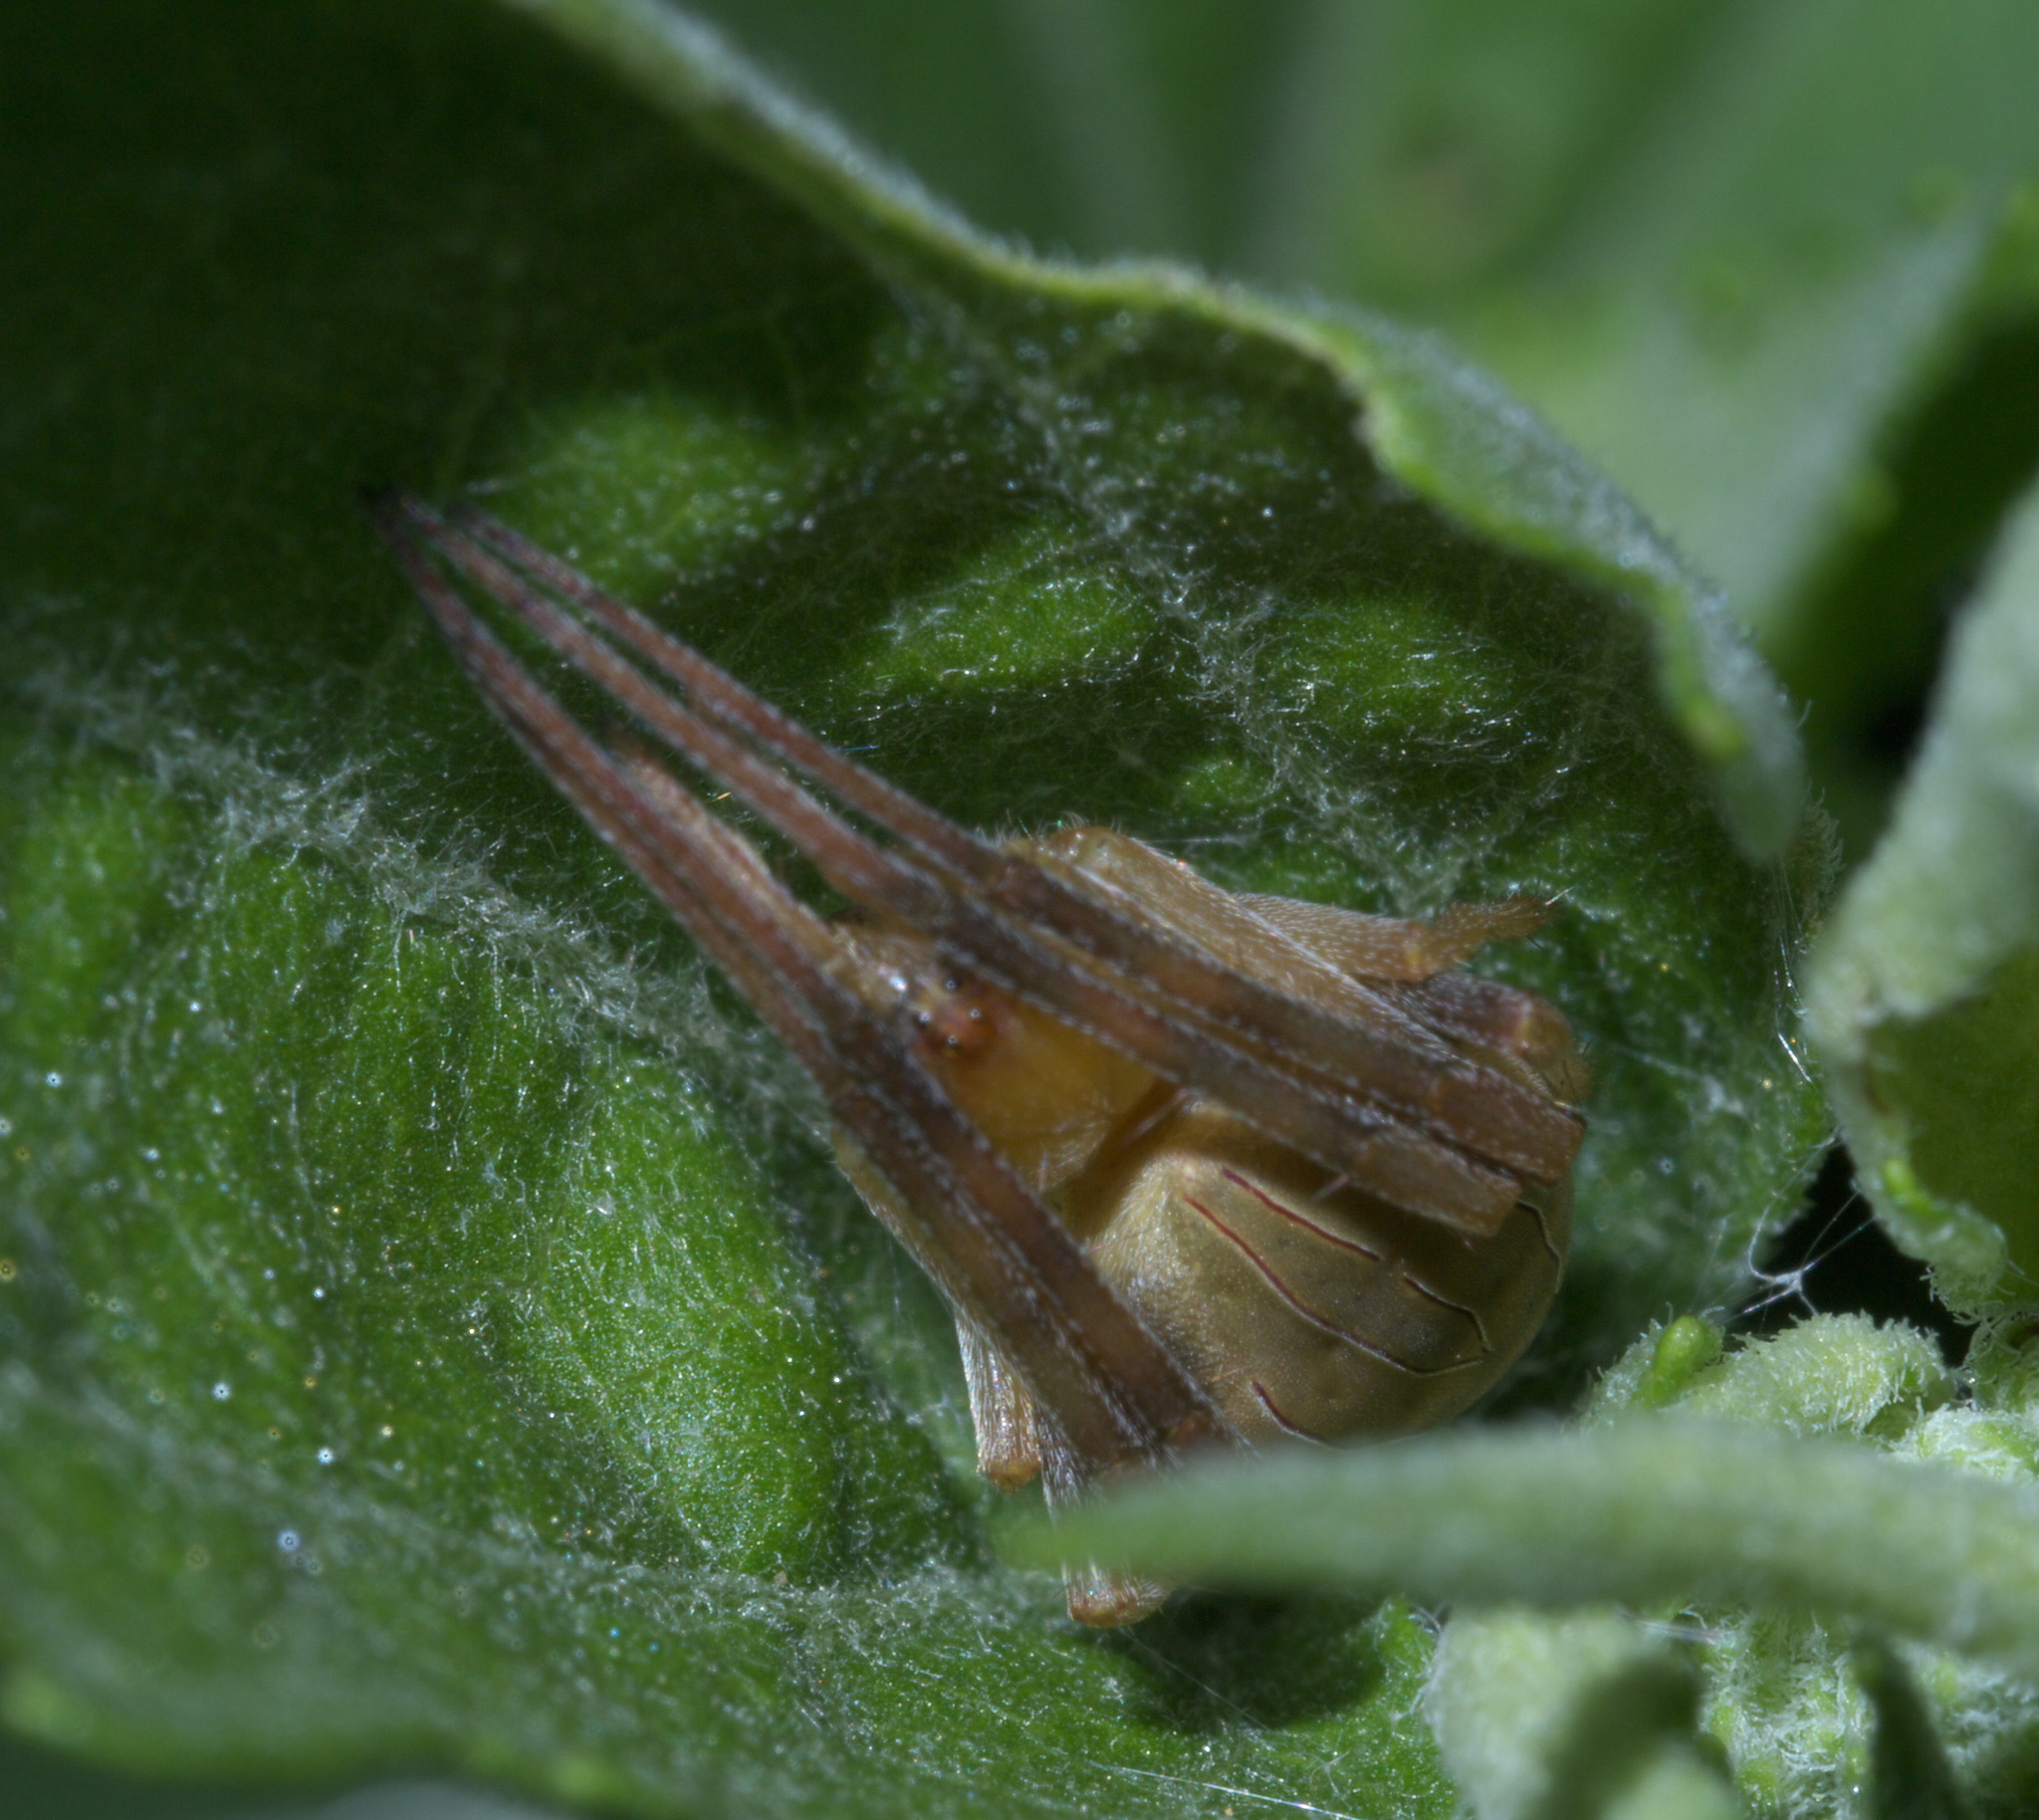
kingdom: Animalia
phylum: Arthropoda
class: Arachnida
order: Araneae
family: Araneidae
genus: Acacesia
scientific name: Acacesia hamata
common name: Orb weavers
